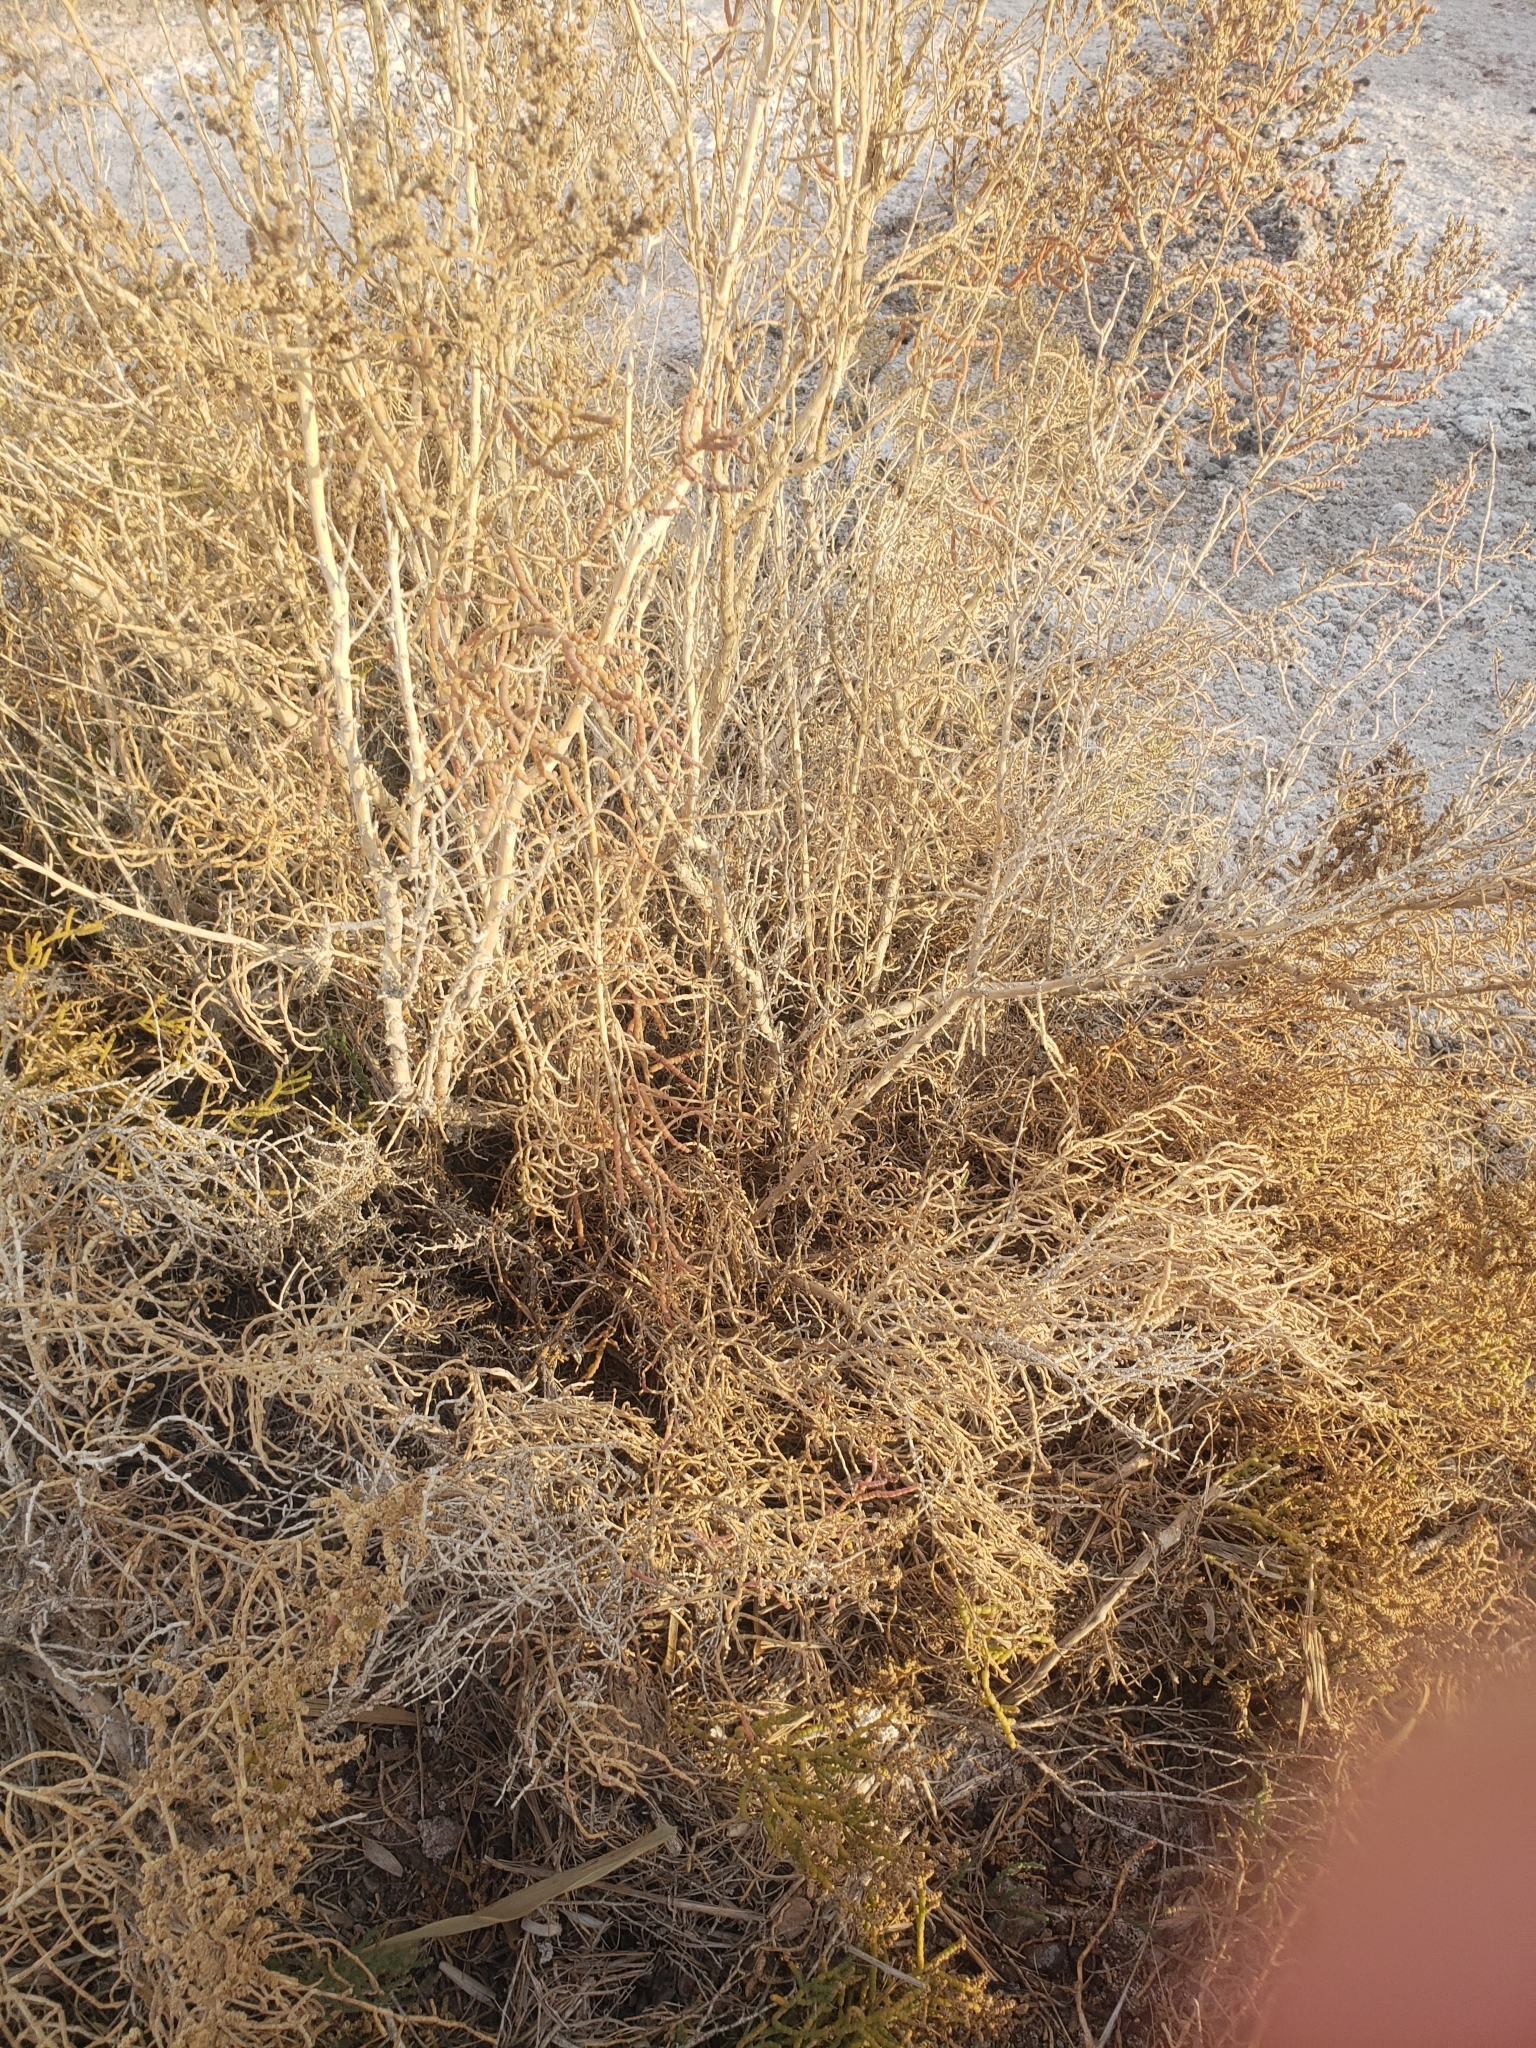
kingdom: Plantae
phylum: Tracheophyta
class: Magnoliopsida
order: Caryophyllales
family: Amaranthaceae
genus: Allenrolfea
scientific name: Allenrolfea occidentalis
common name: Iodine-bush
